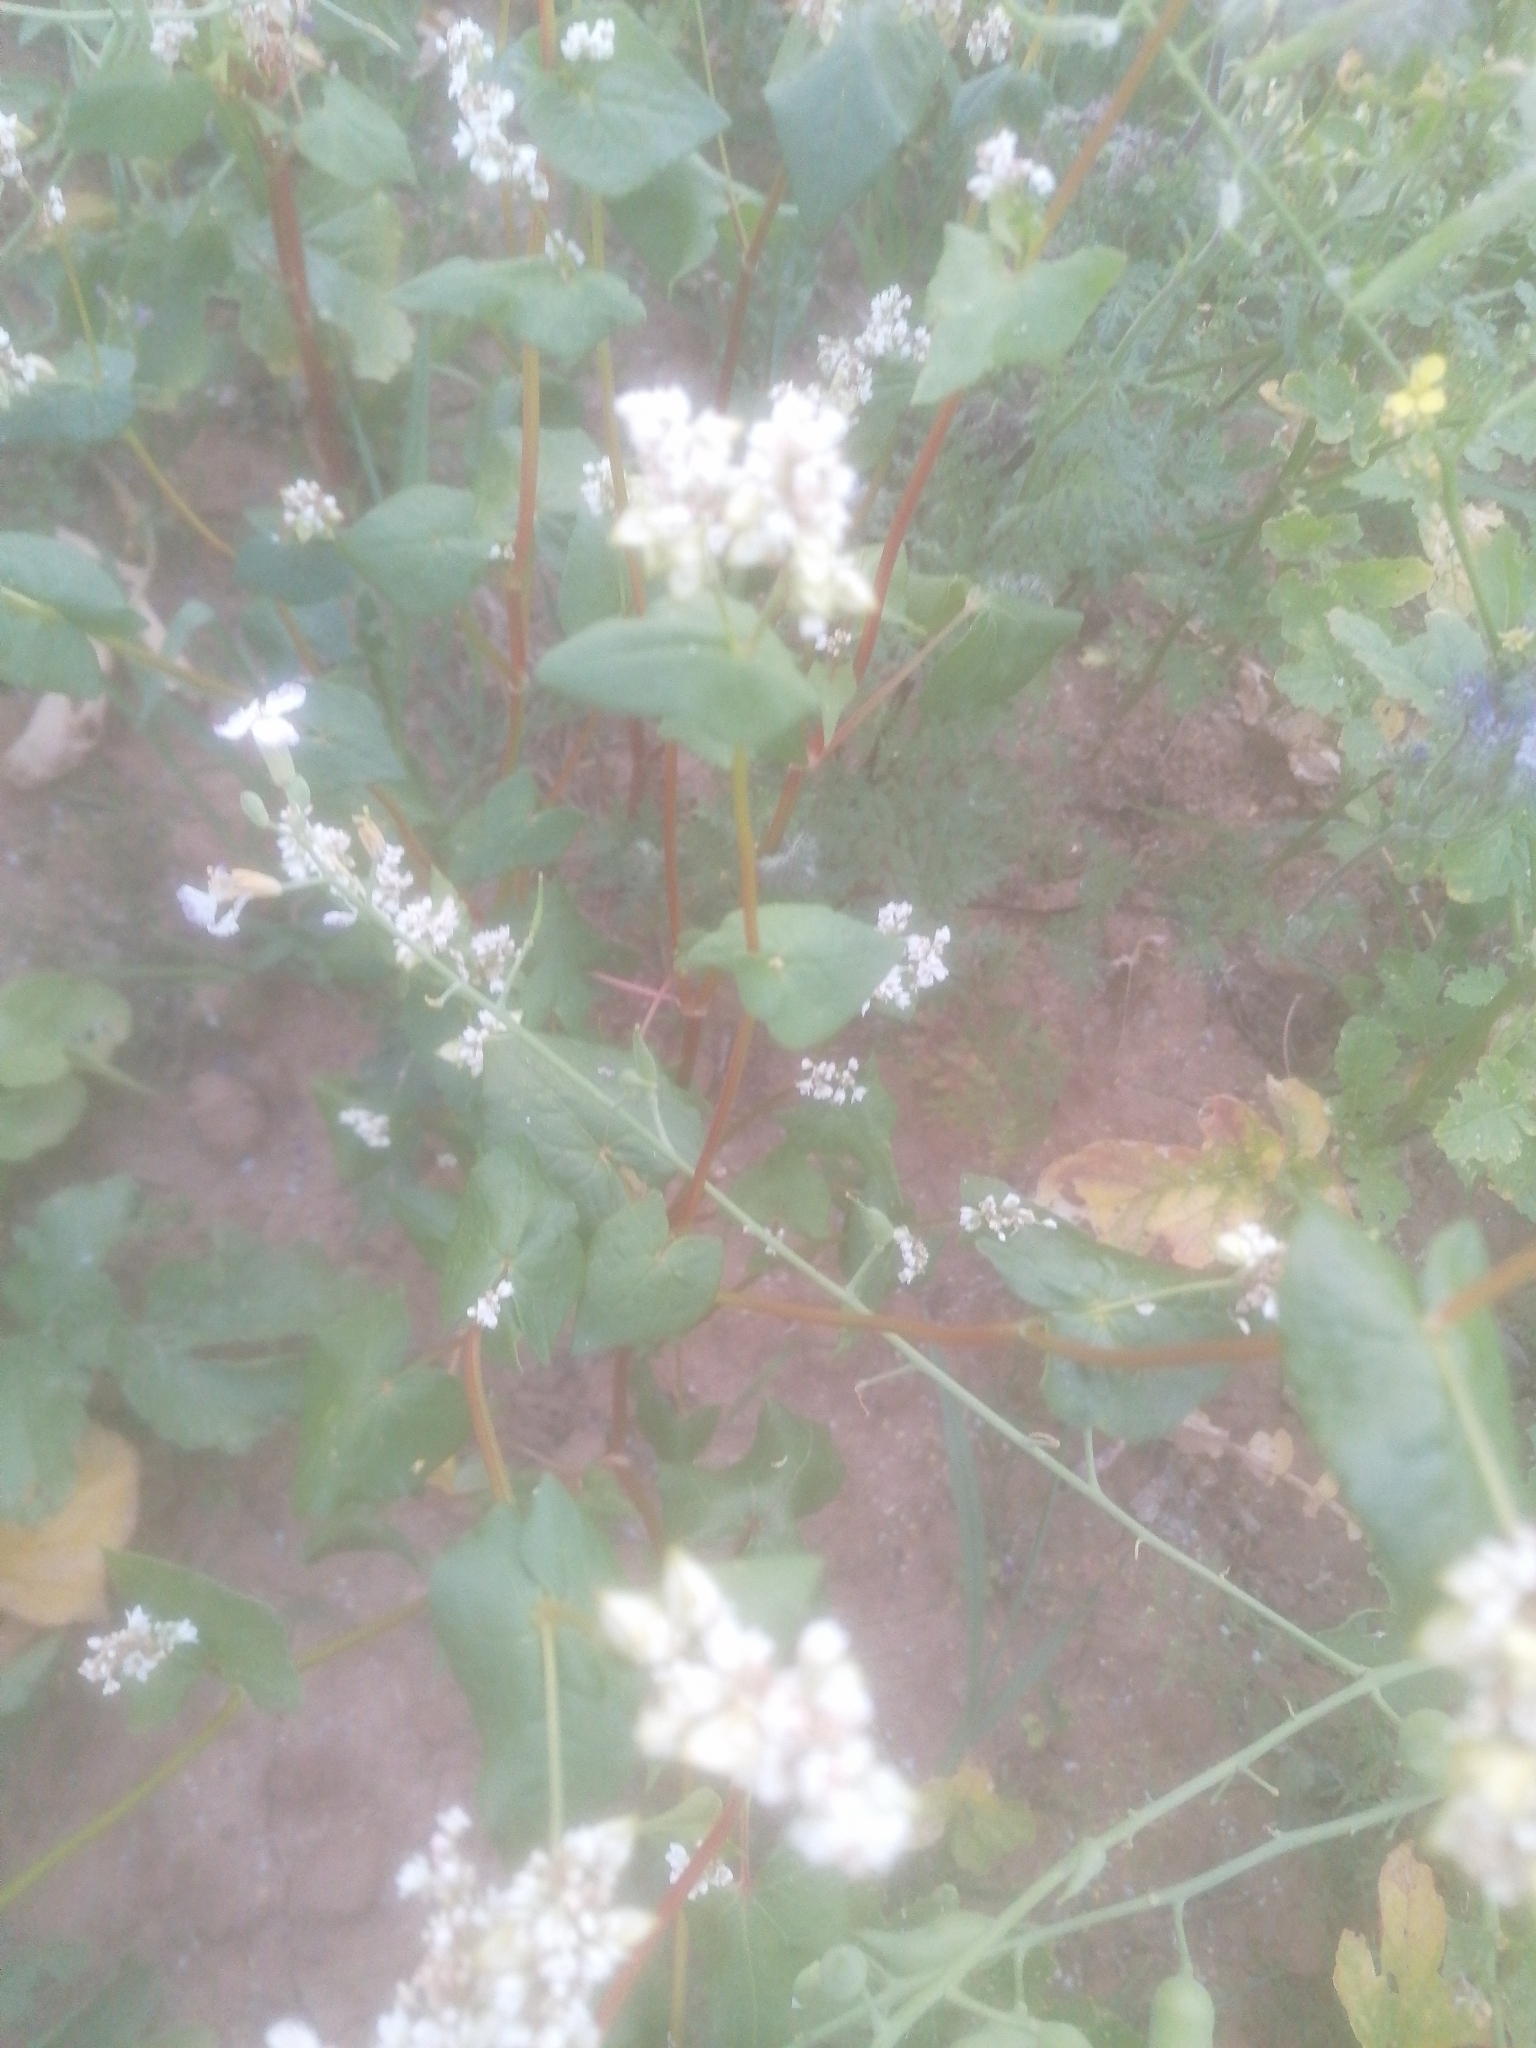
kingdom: Plantae
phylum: Tracheophyta
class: Magnoliopsida
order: Caryophyllales
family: Polygonaceae
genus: Fagopyrum
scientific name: Fagopyrum esculentum
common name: Buckwheat
